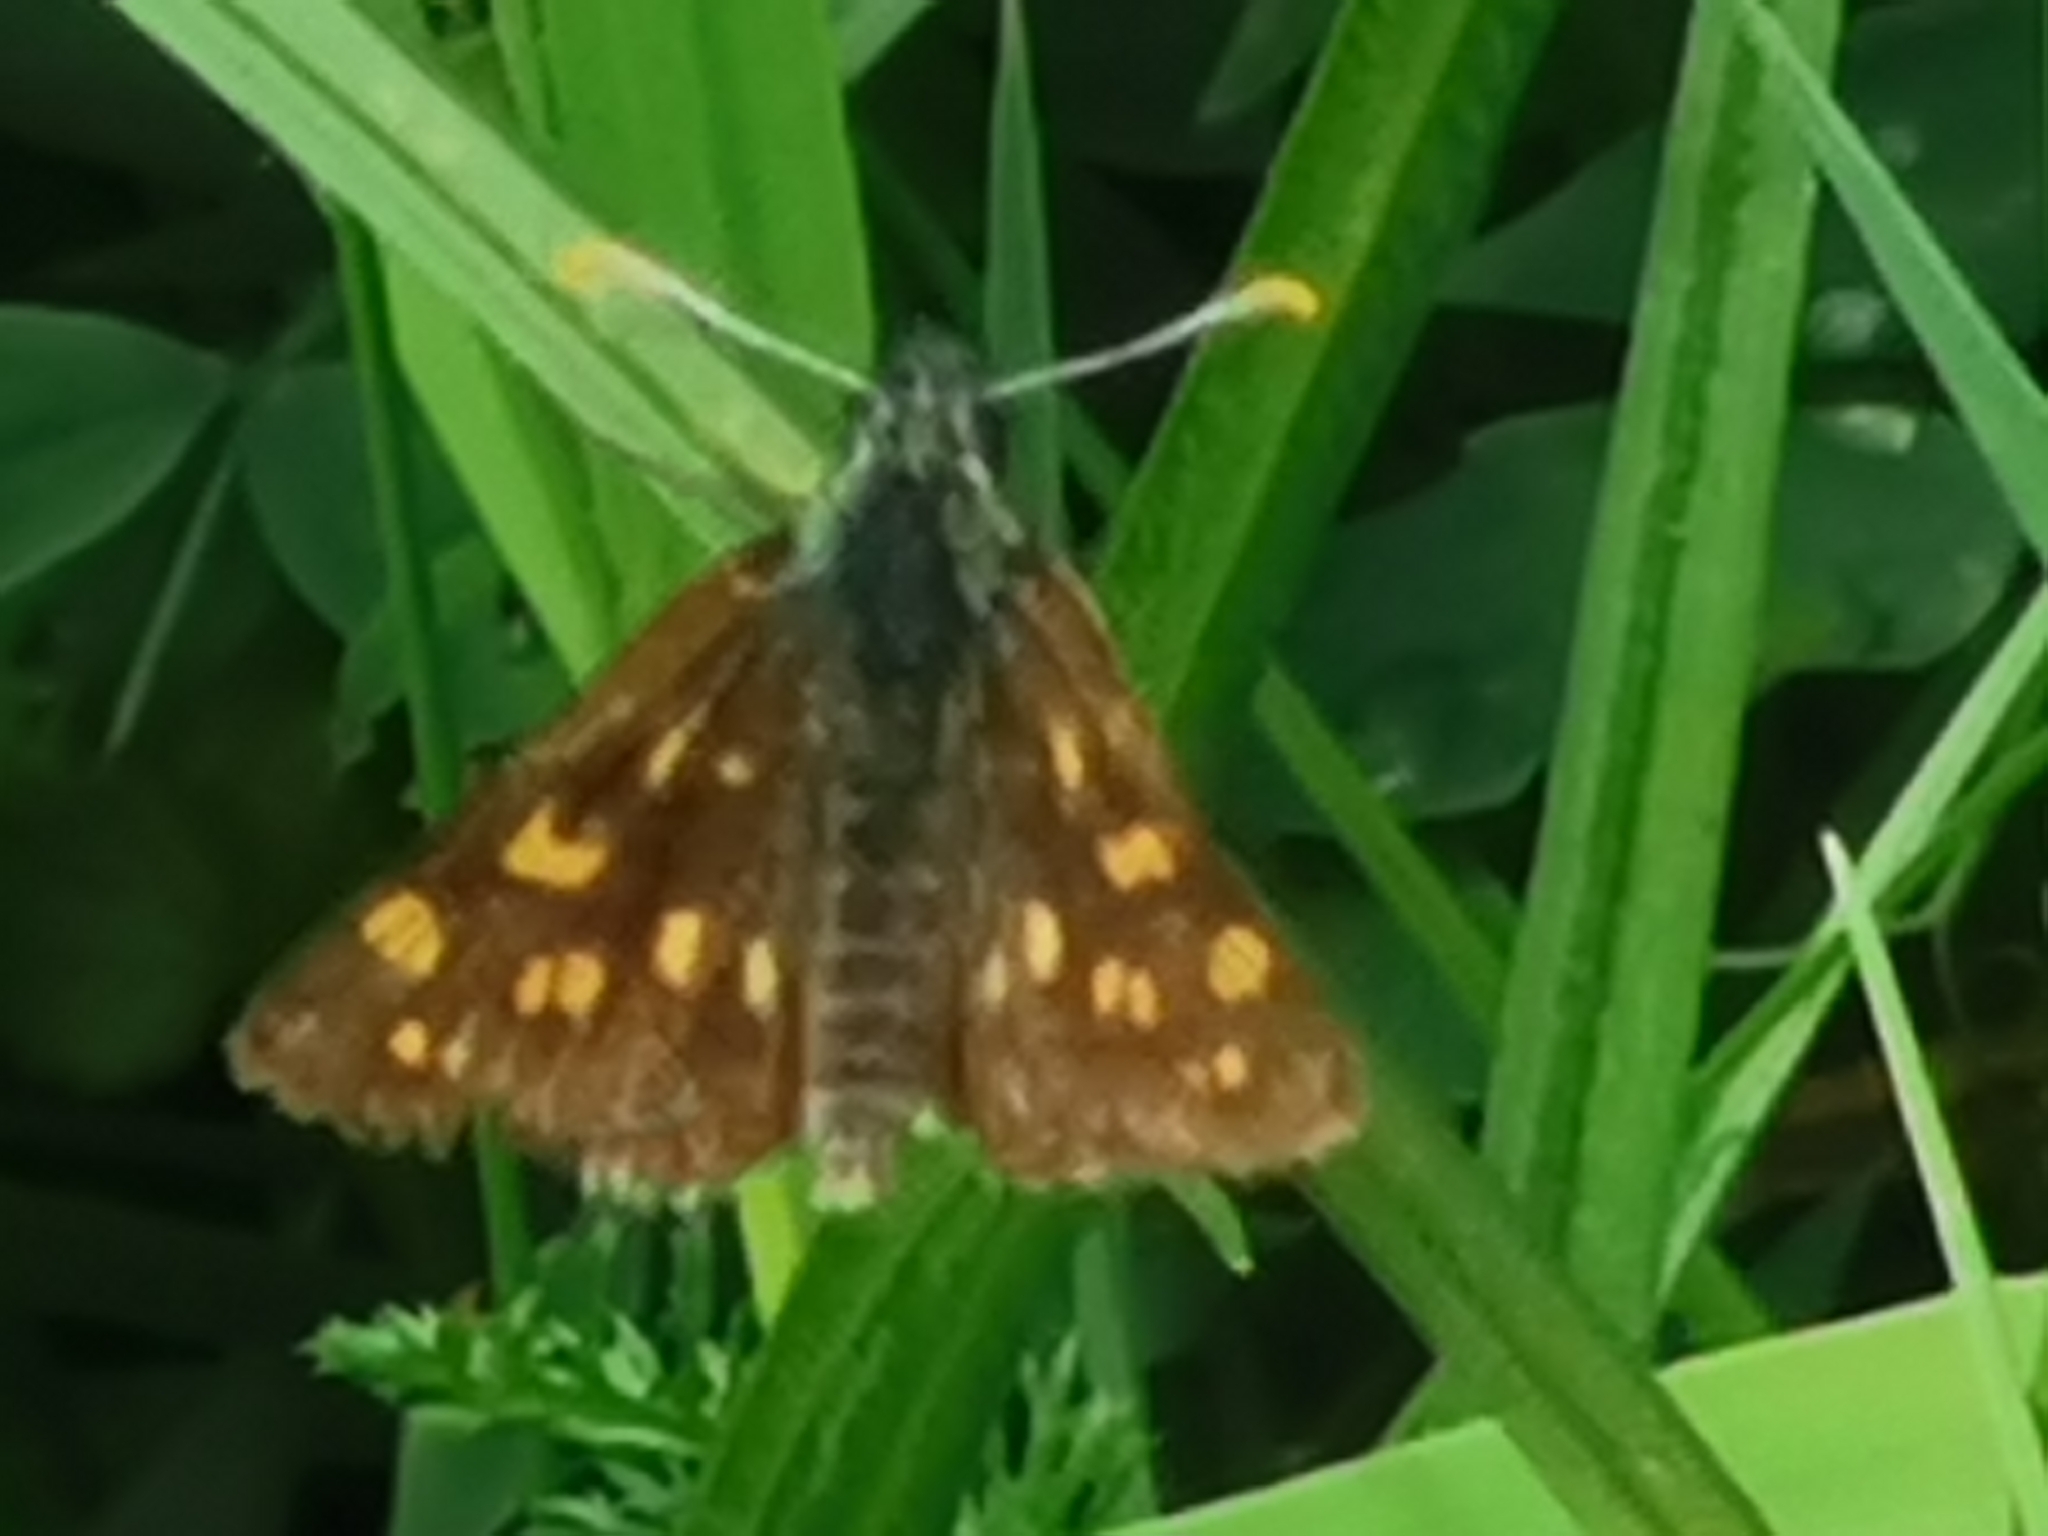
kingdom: Animalia
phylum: Arthropoda
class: Insecta
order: Lepidoptera
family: Hesperiidae
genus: Carterocephalus
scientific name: Carterocephalus palaemon
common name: Chequered skipper
